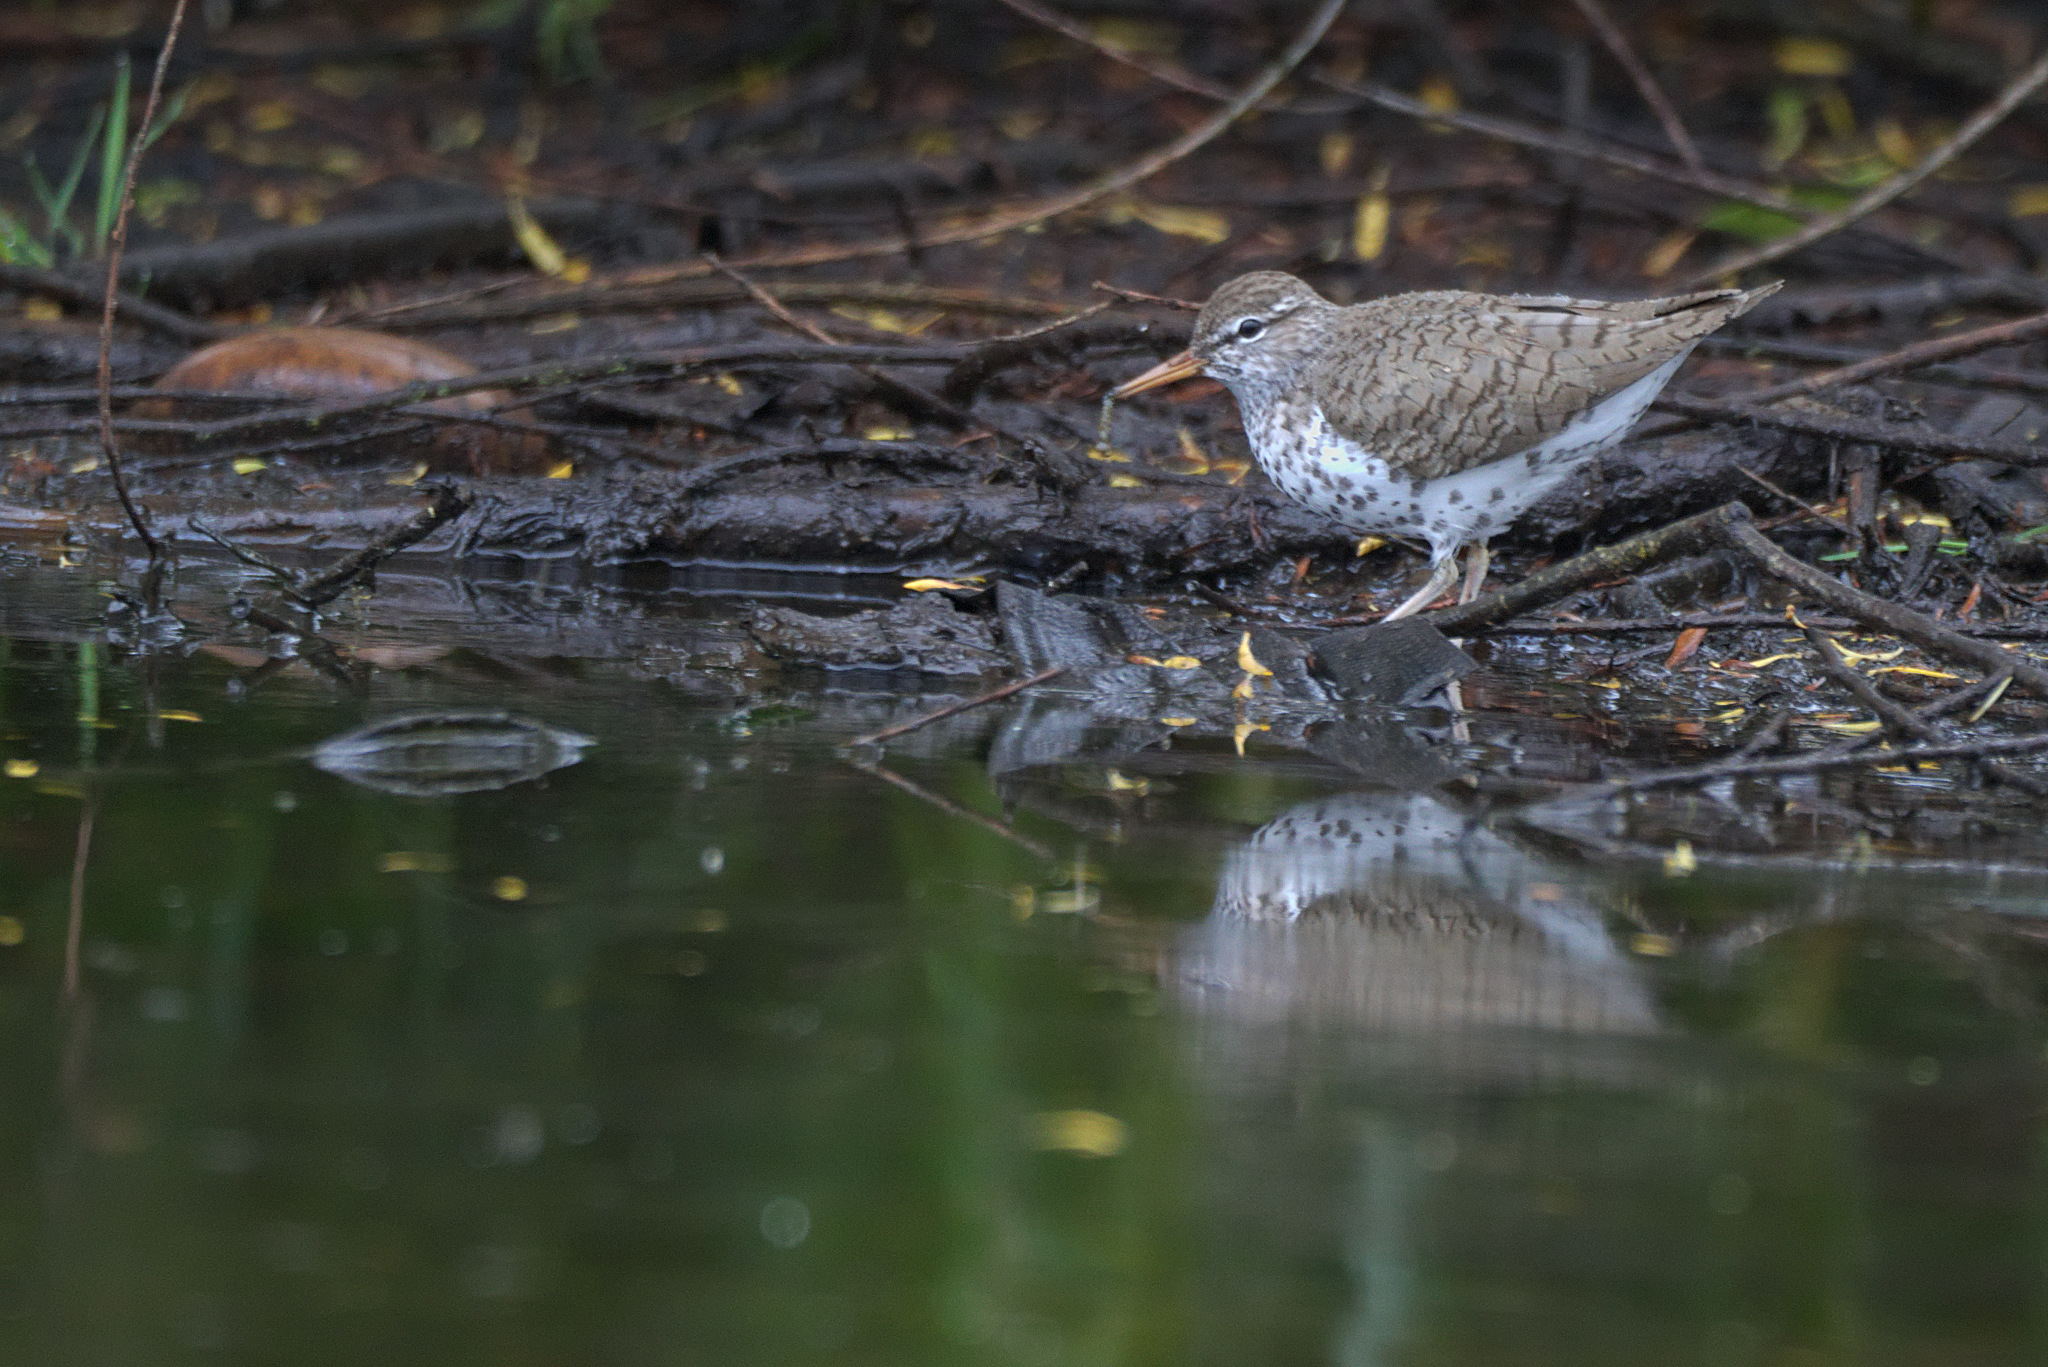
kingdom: Animalia
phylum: Chordata
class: Aves
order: Charadriiformes
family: Scolopacidae
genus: Actitis
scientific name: Actitis macularius
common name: Spotted sandpiper
